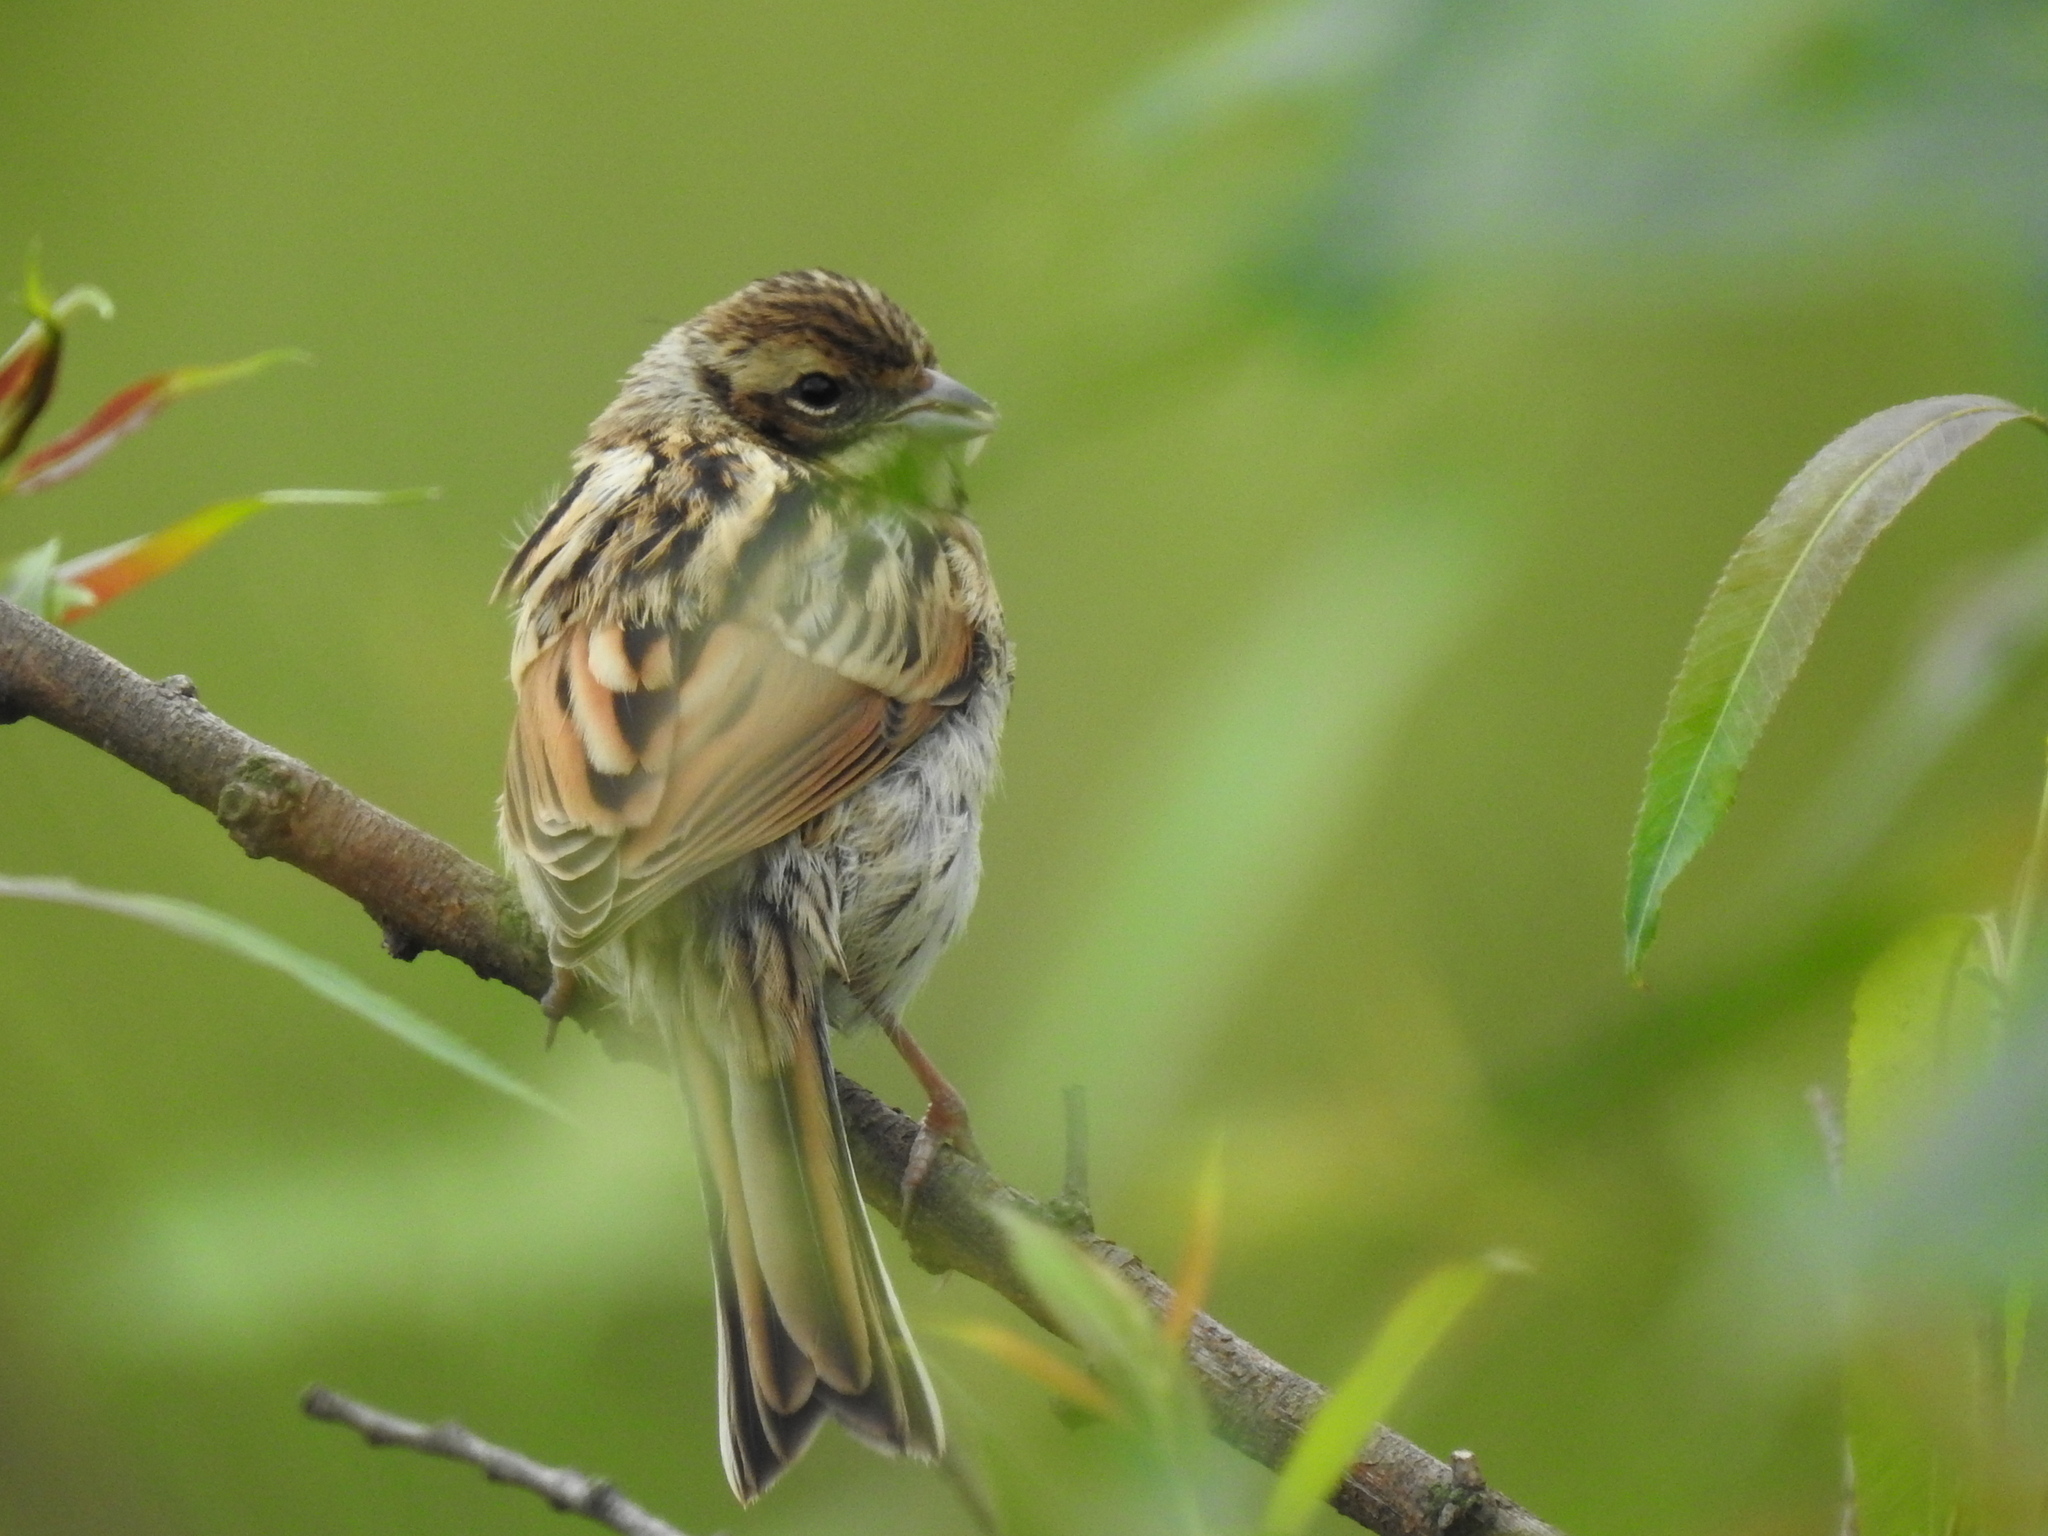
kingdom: Animalia
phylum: Chordata
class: Aves
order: Passeriformes
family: Emberizidae
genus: Emberiza
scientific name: Emberiza schoeniclus
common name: Reed bunting
